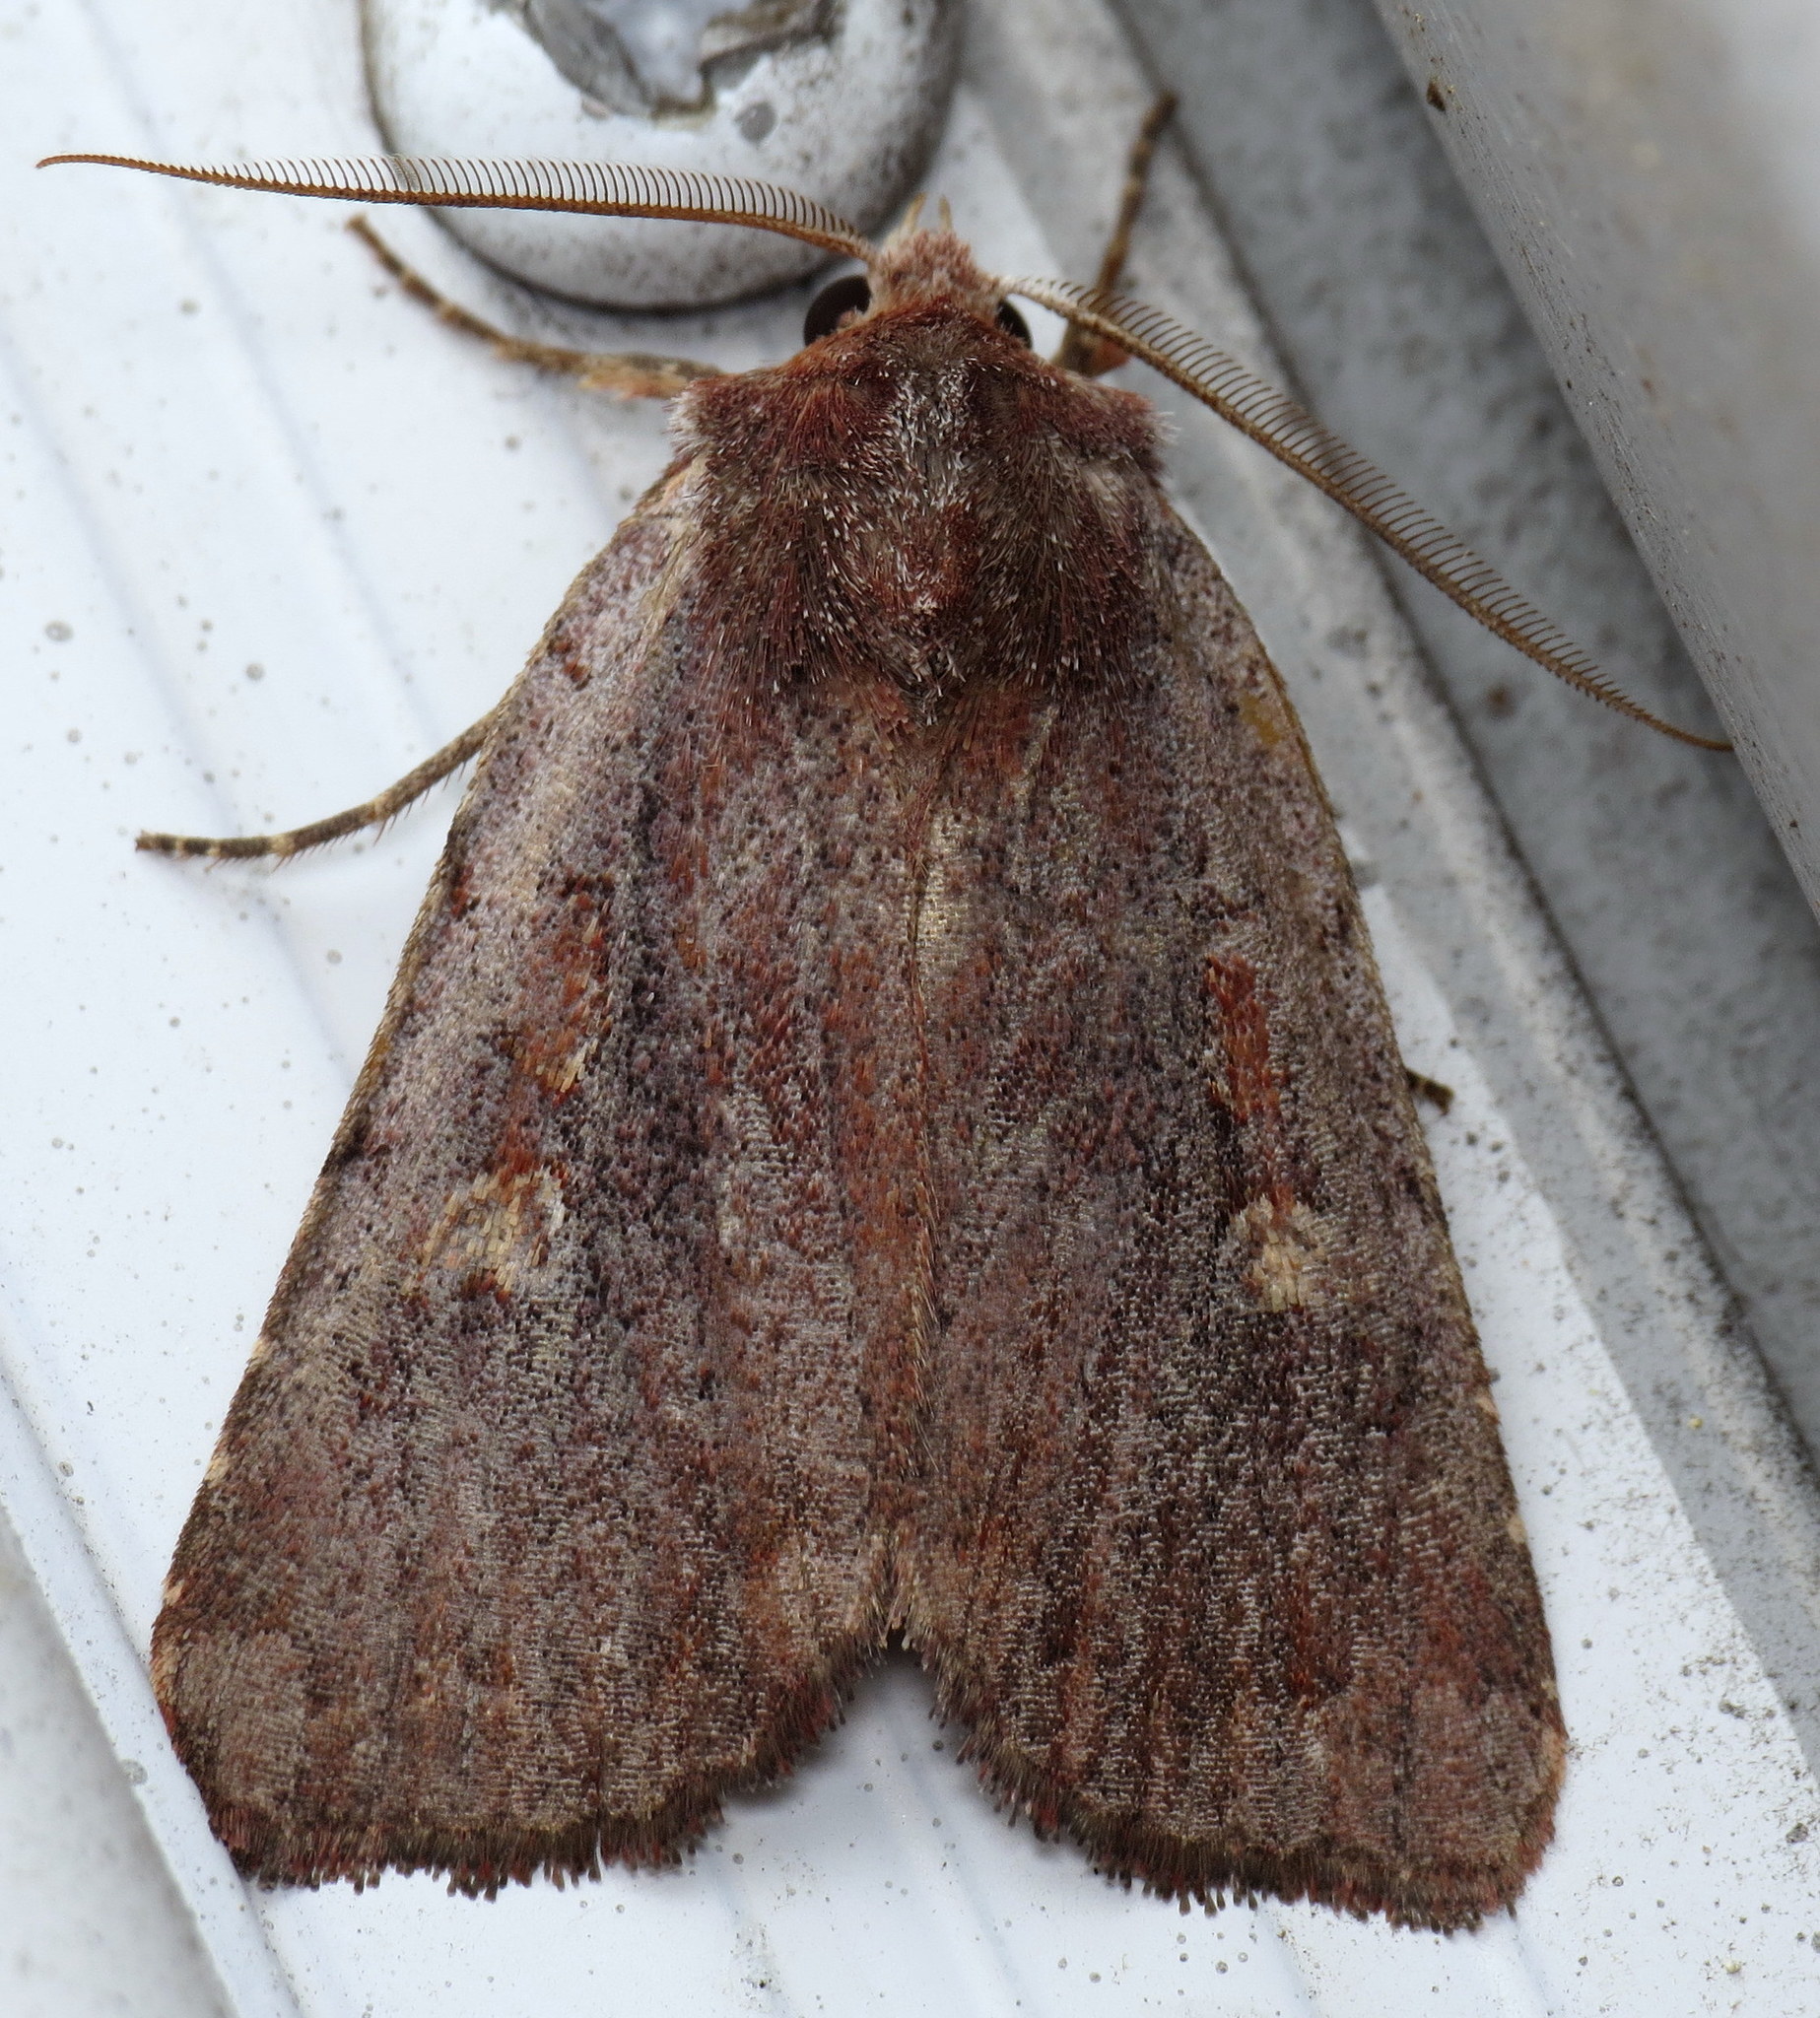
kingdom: Animalia
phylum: Arthropoda
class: Insecta
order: Lepidoptera
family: Noctuidae
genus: Xestia
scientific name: Xestia dilucida
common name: Dull reddish dart
